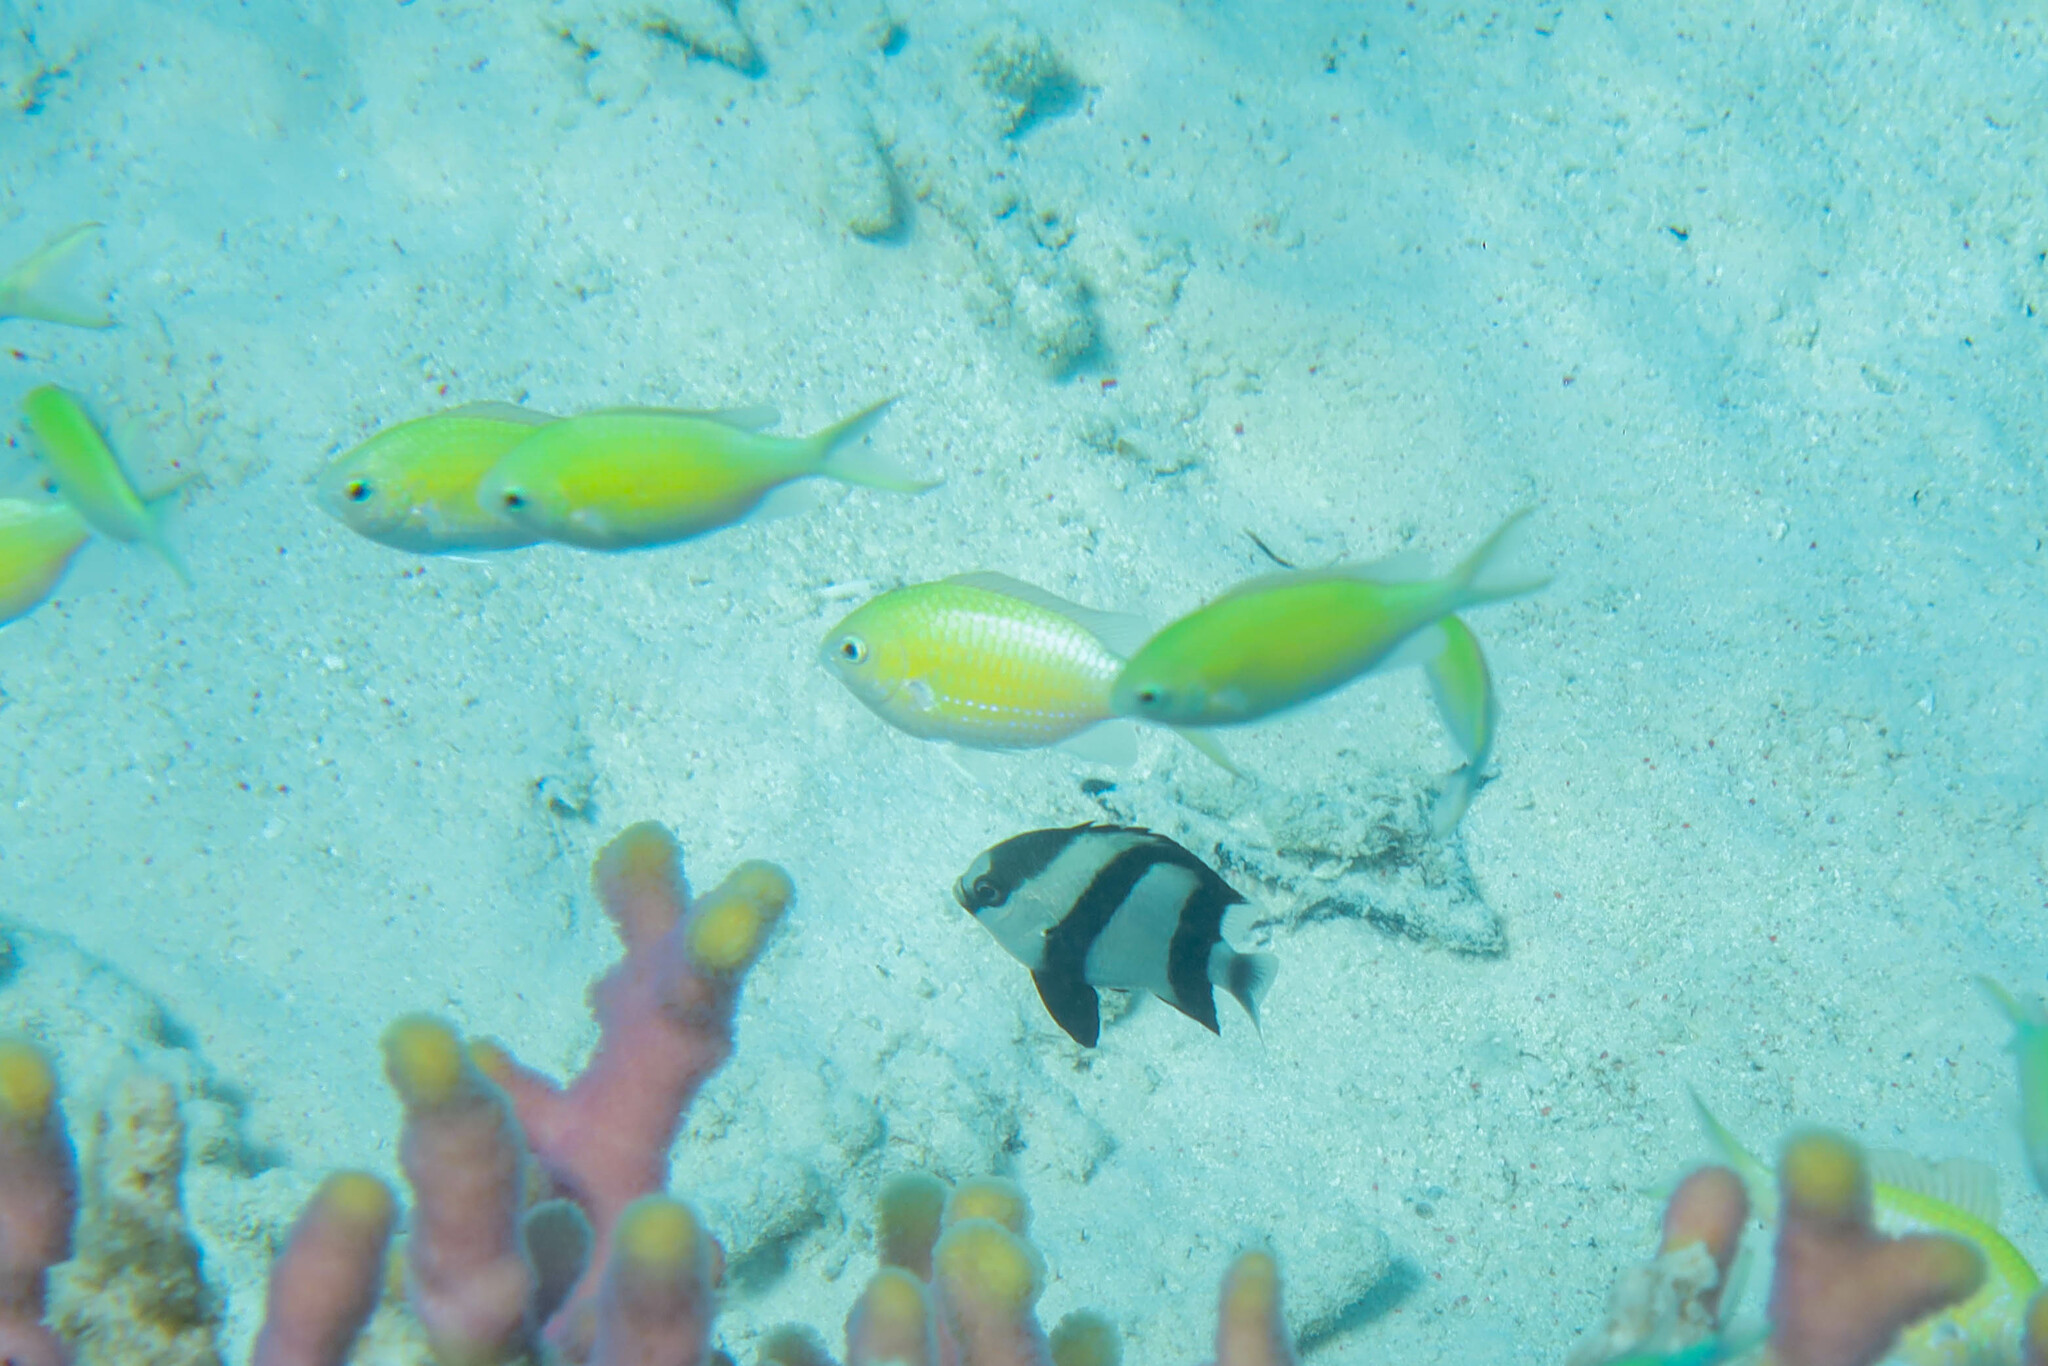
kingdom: Animalia
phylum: Chordata
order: Perciformes
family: Pomacentridae
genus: Chromis
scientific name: Chromis viridis
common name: Blue-green chromis
